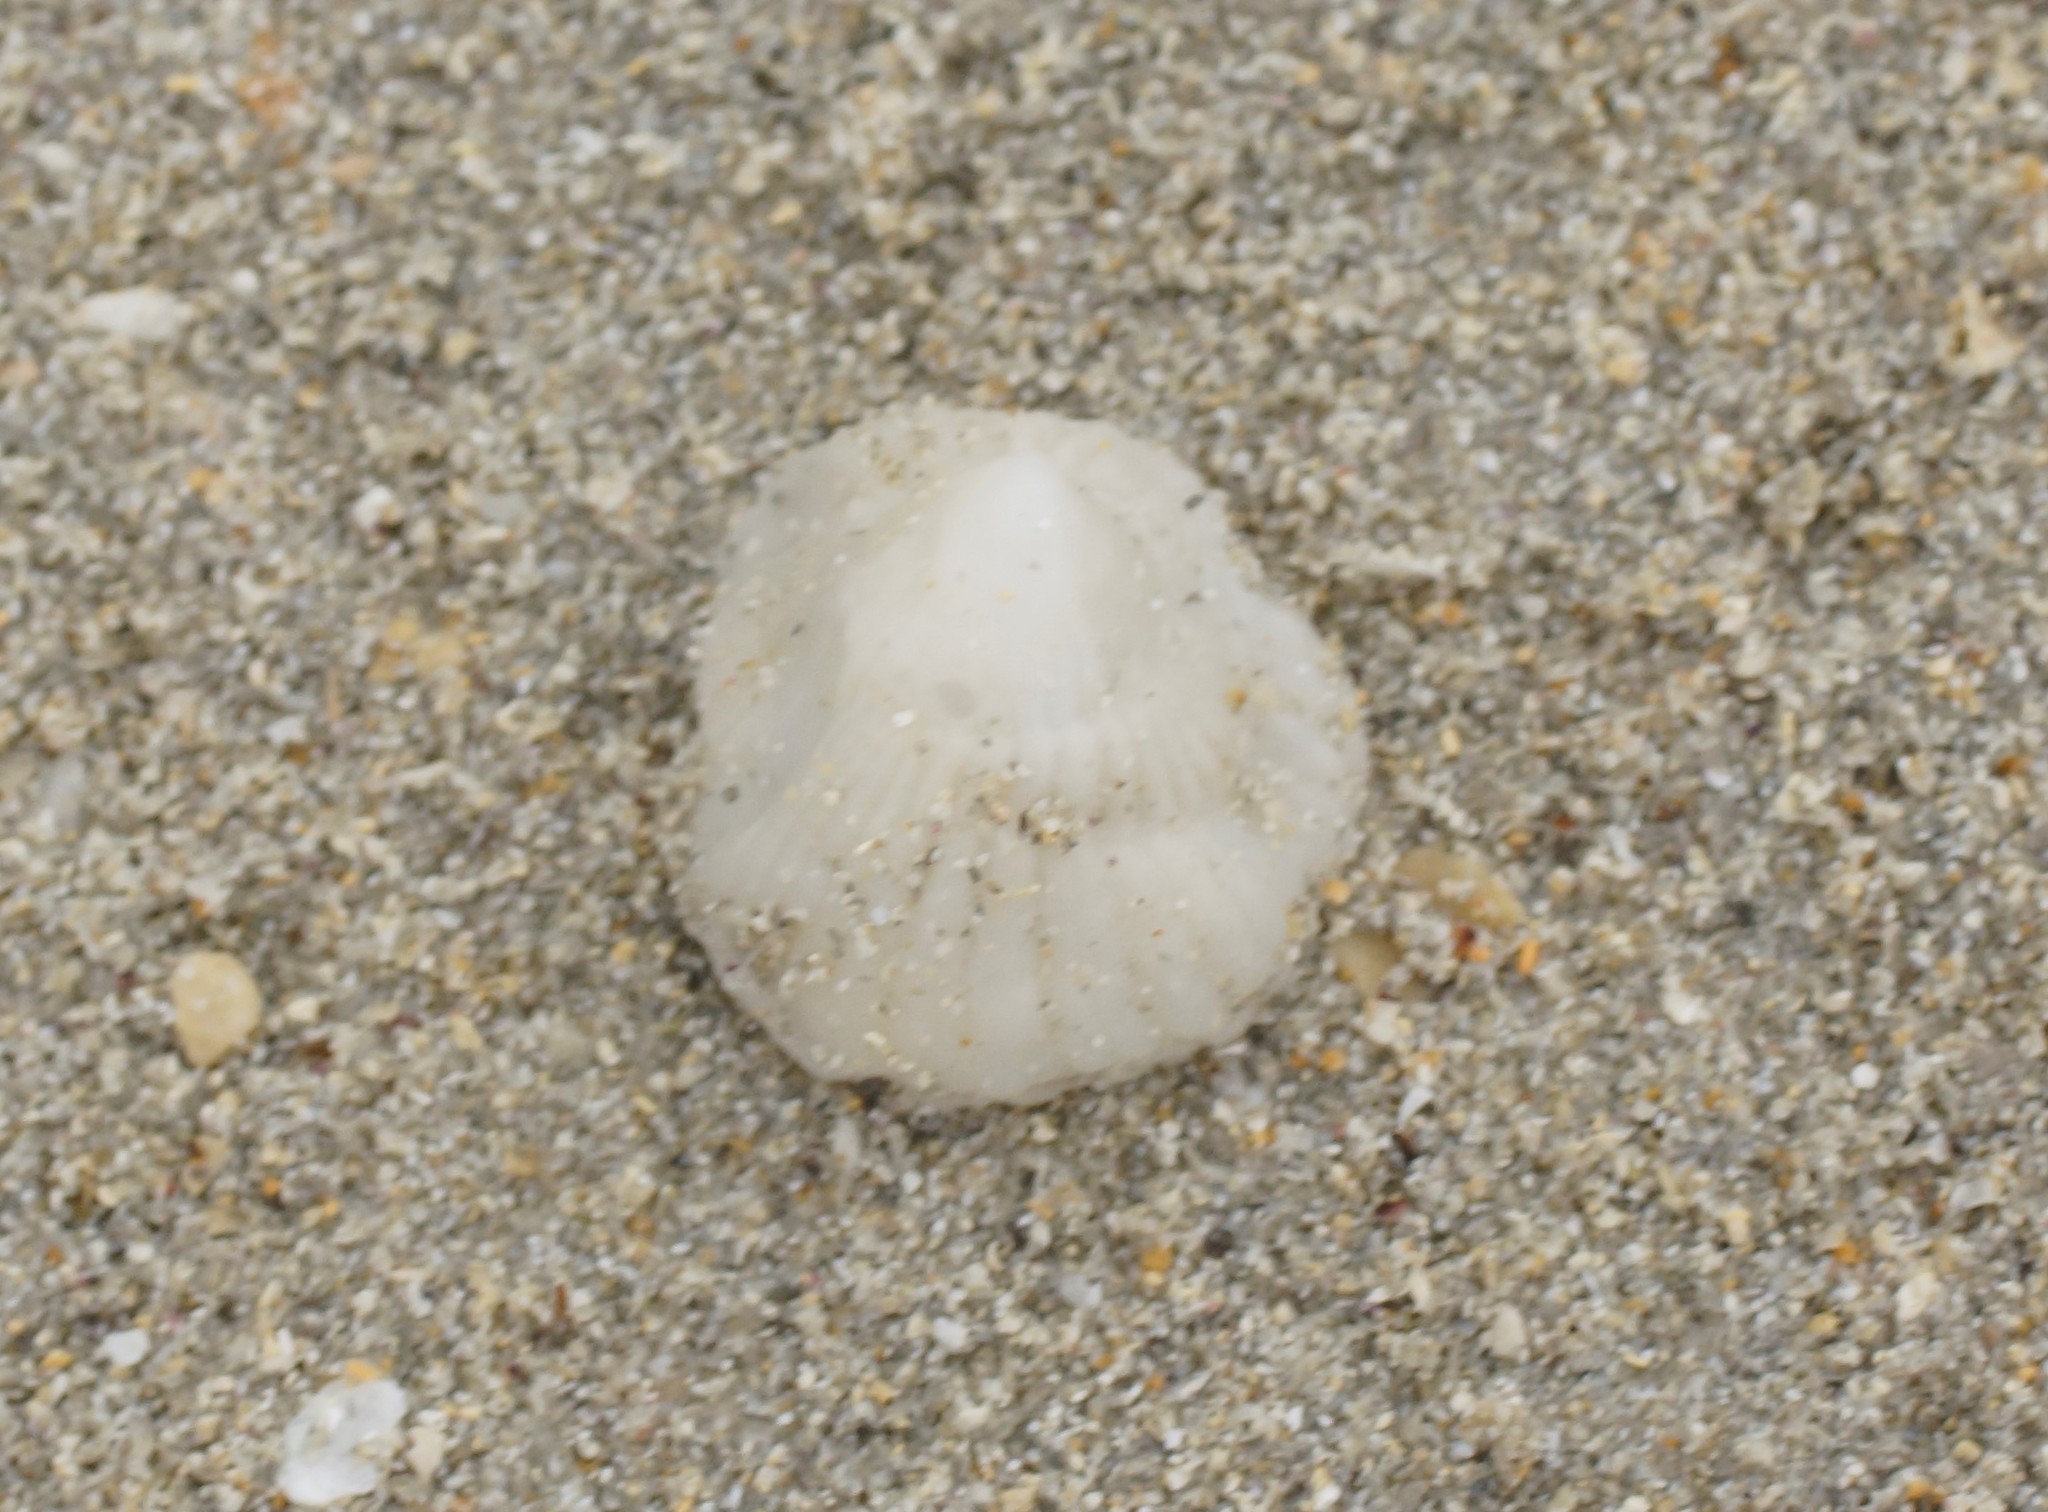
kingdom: Animalia
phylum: Mollusca
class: Gastropoda
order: Littorinimorpha
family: Hipponicidae
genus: Sabia
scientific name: Sabia australis
